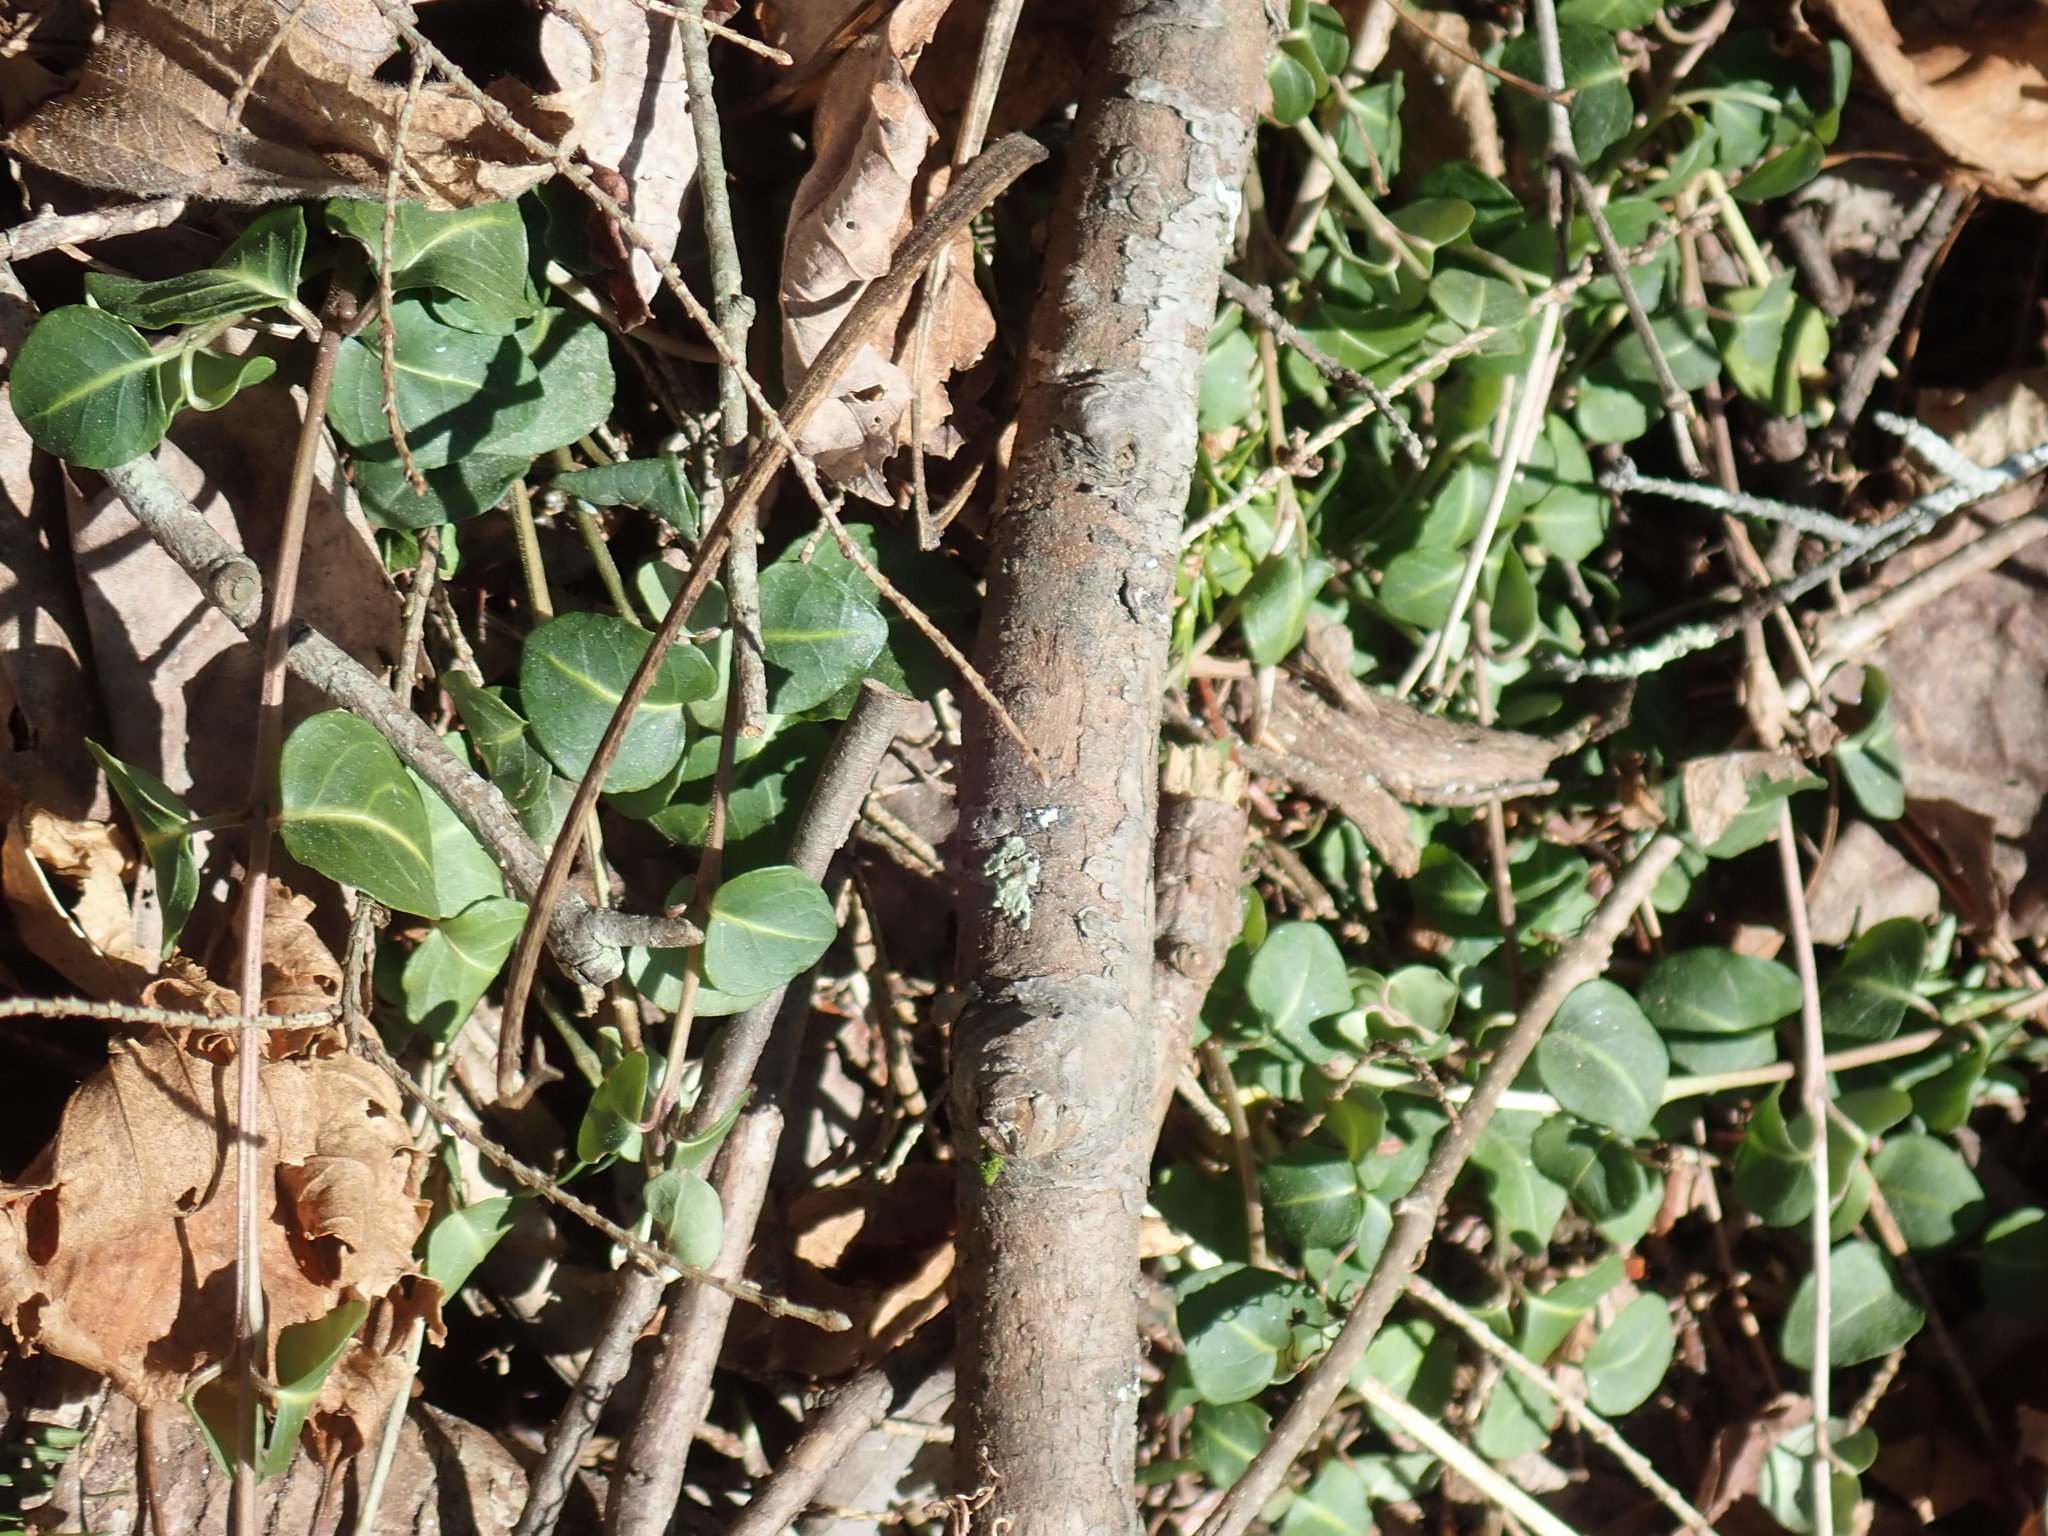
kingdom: Plantae
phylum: Tracheophyta
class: Magnoliopsida
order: Gentianales
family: Rubiaceae
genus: Mitchella
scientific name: Mitchella repens
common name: Partridge-berry
